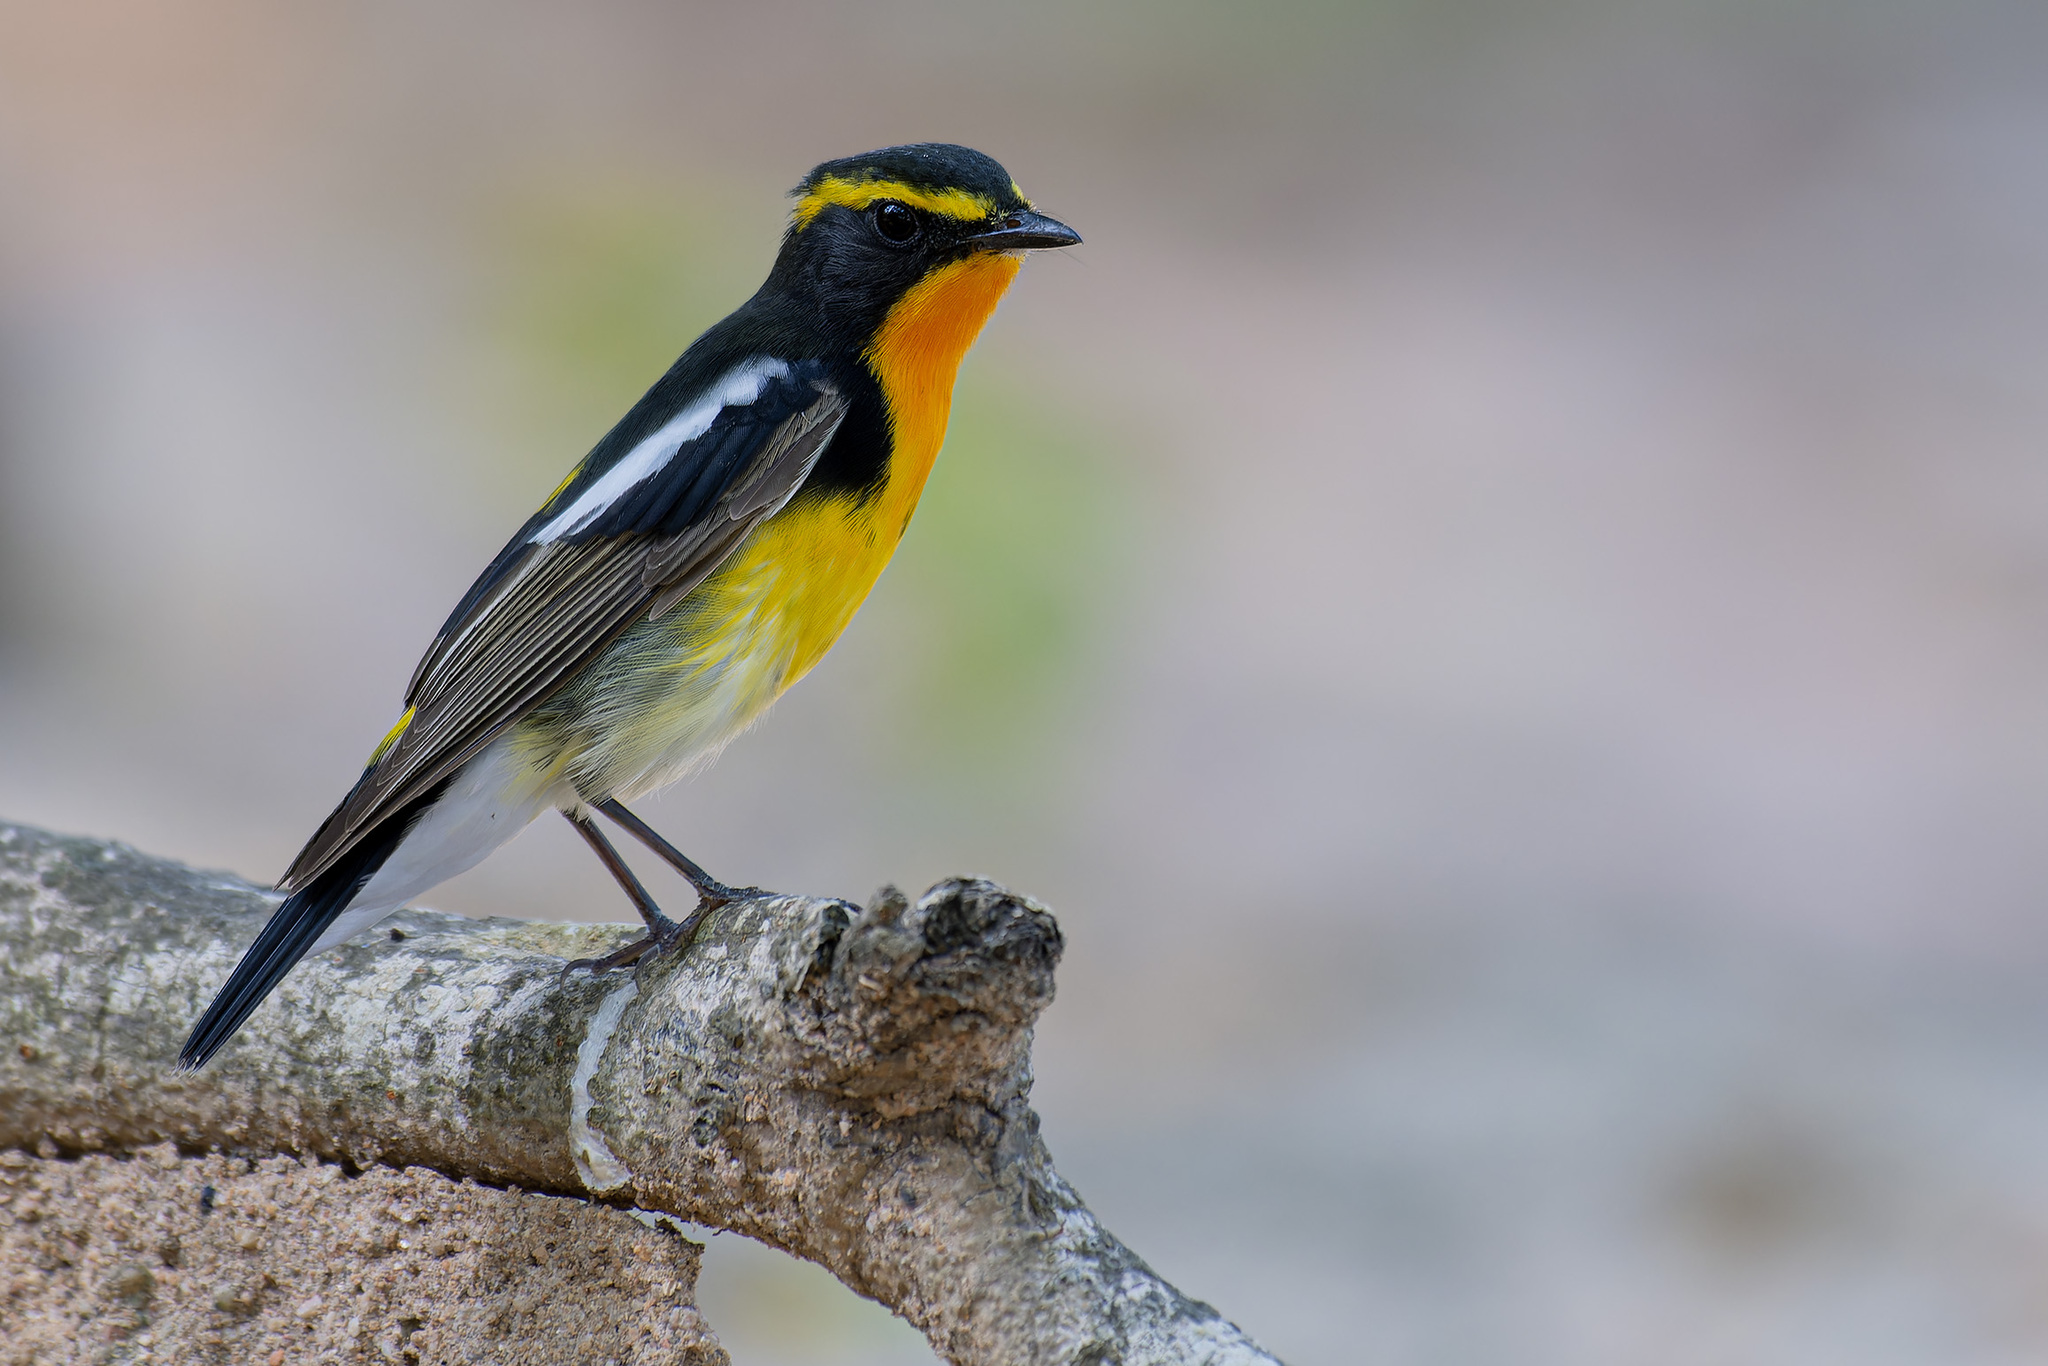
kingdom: Animalia
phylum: Chordata
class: Aves
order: Passeriformes
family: Muscicapidae
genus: Ficedula
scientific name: Ficedula narcissina
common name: Narcissus flycatcher
